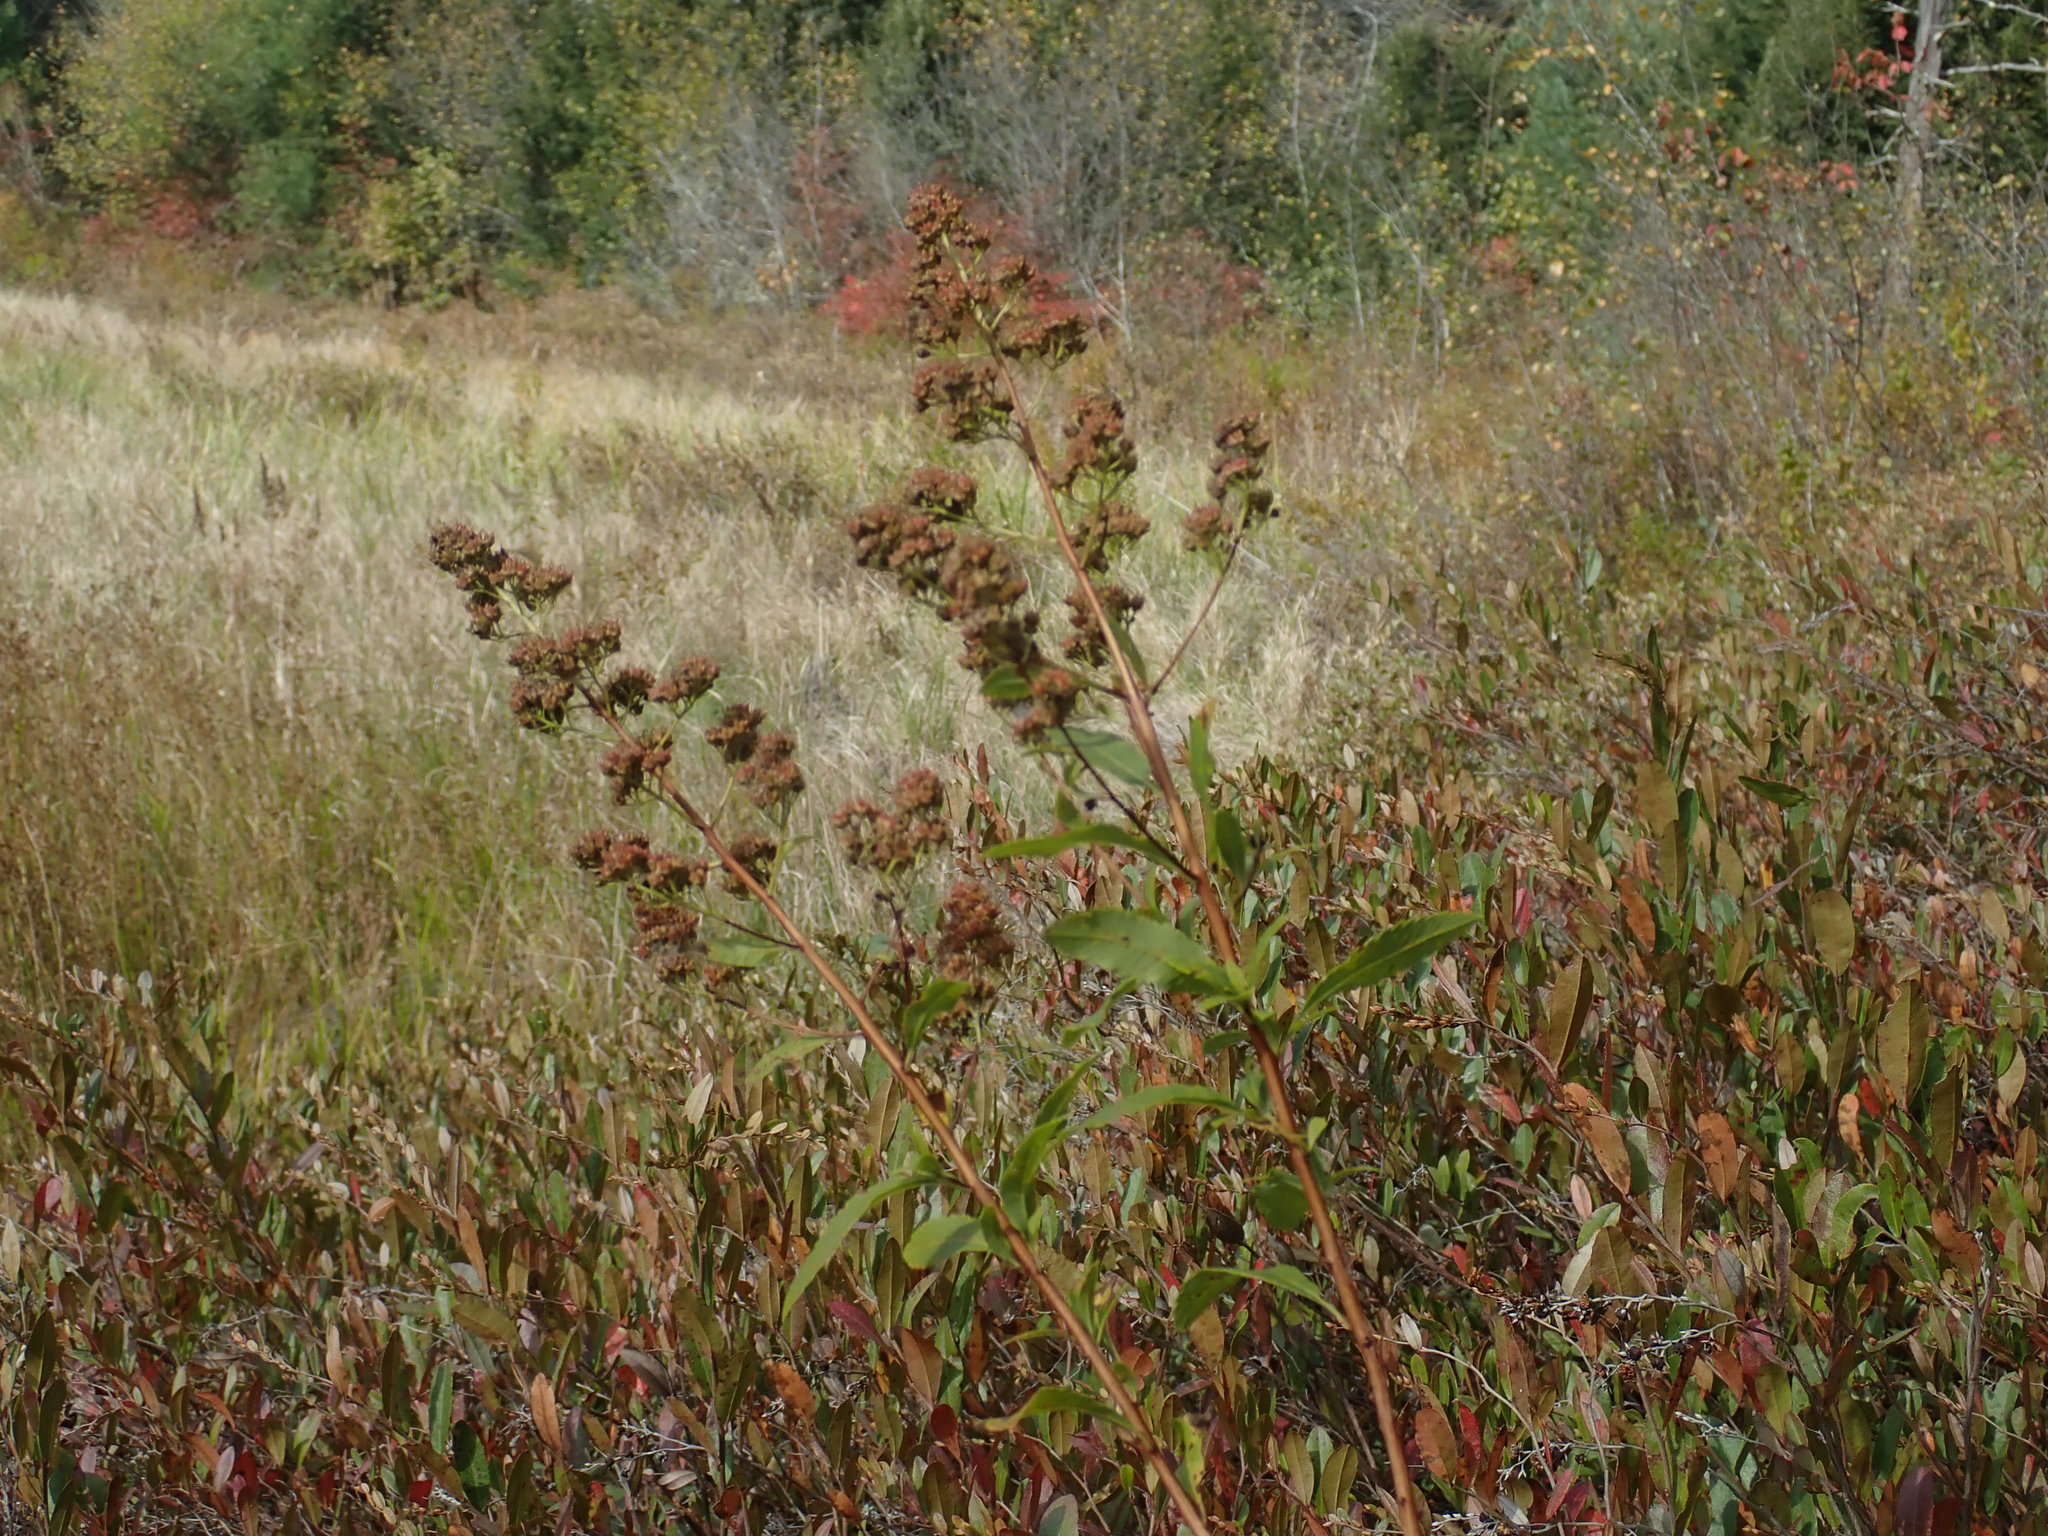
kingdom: Plantae
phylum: Tracheophyta
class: Magnoliopsida
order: Rosales
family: Rosaceae
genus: Spiraea
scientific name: Spiraea alba
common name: Pale bridewort
